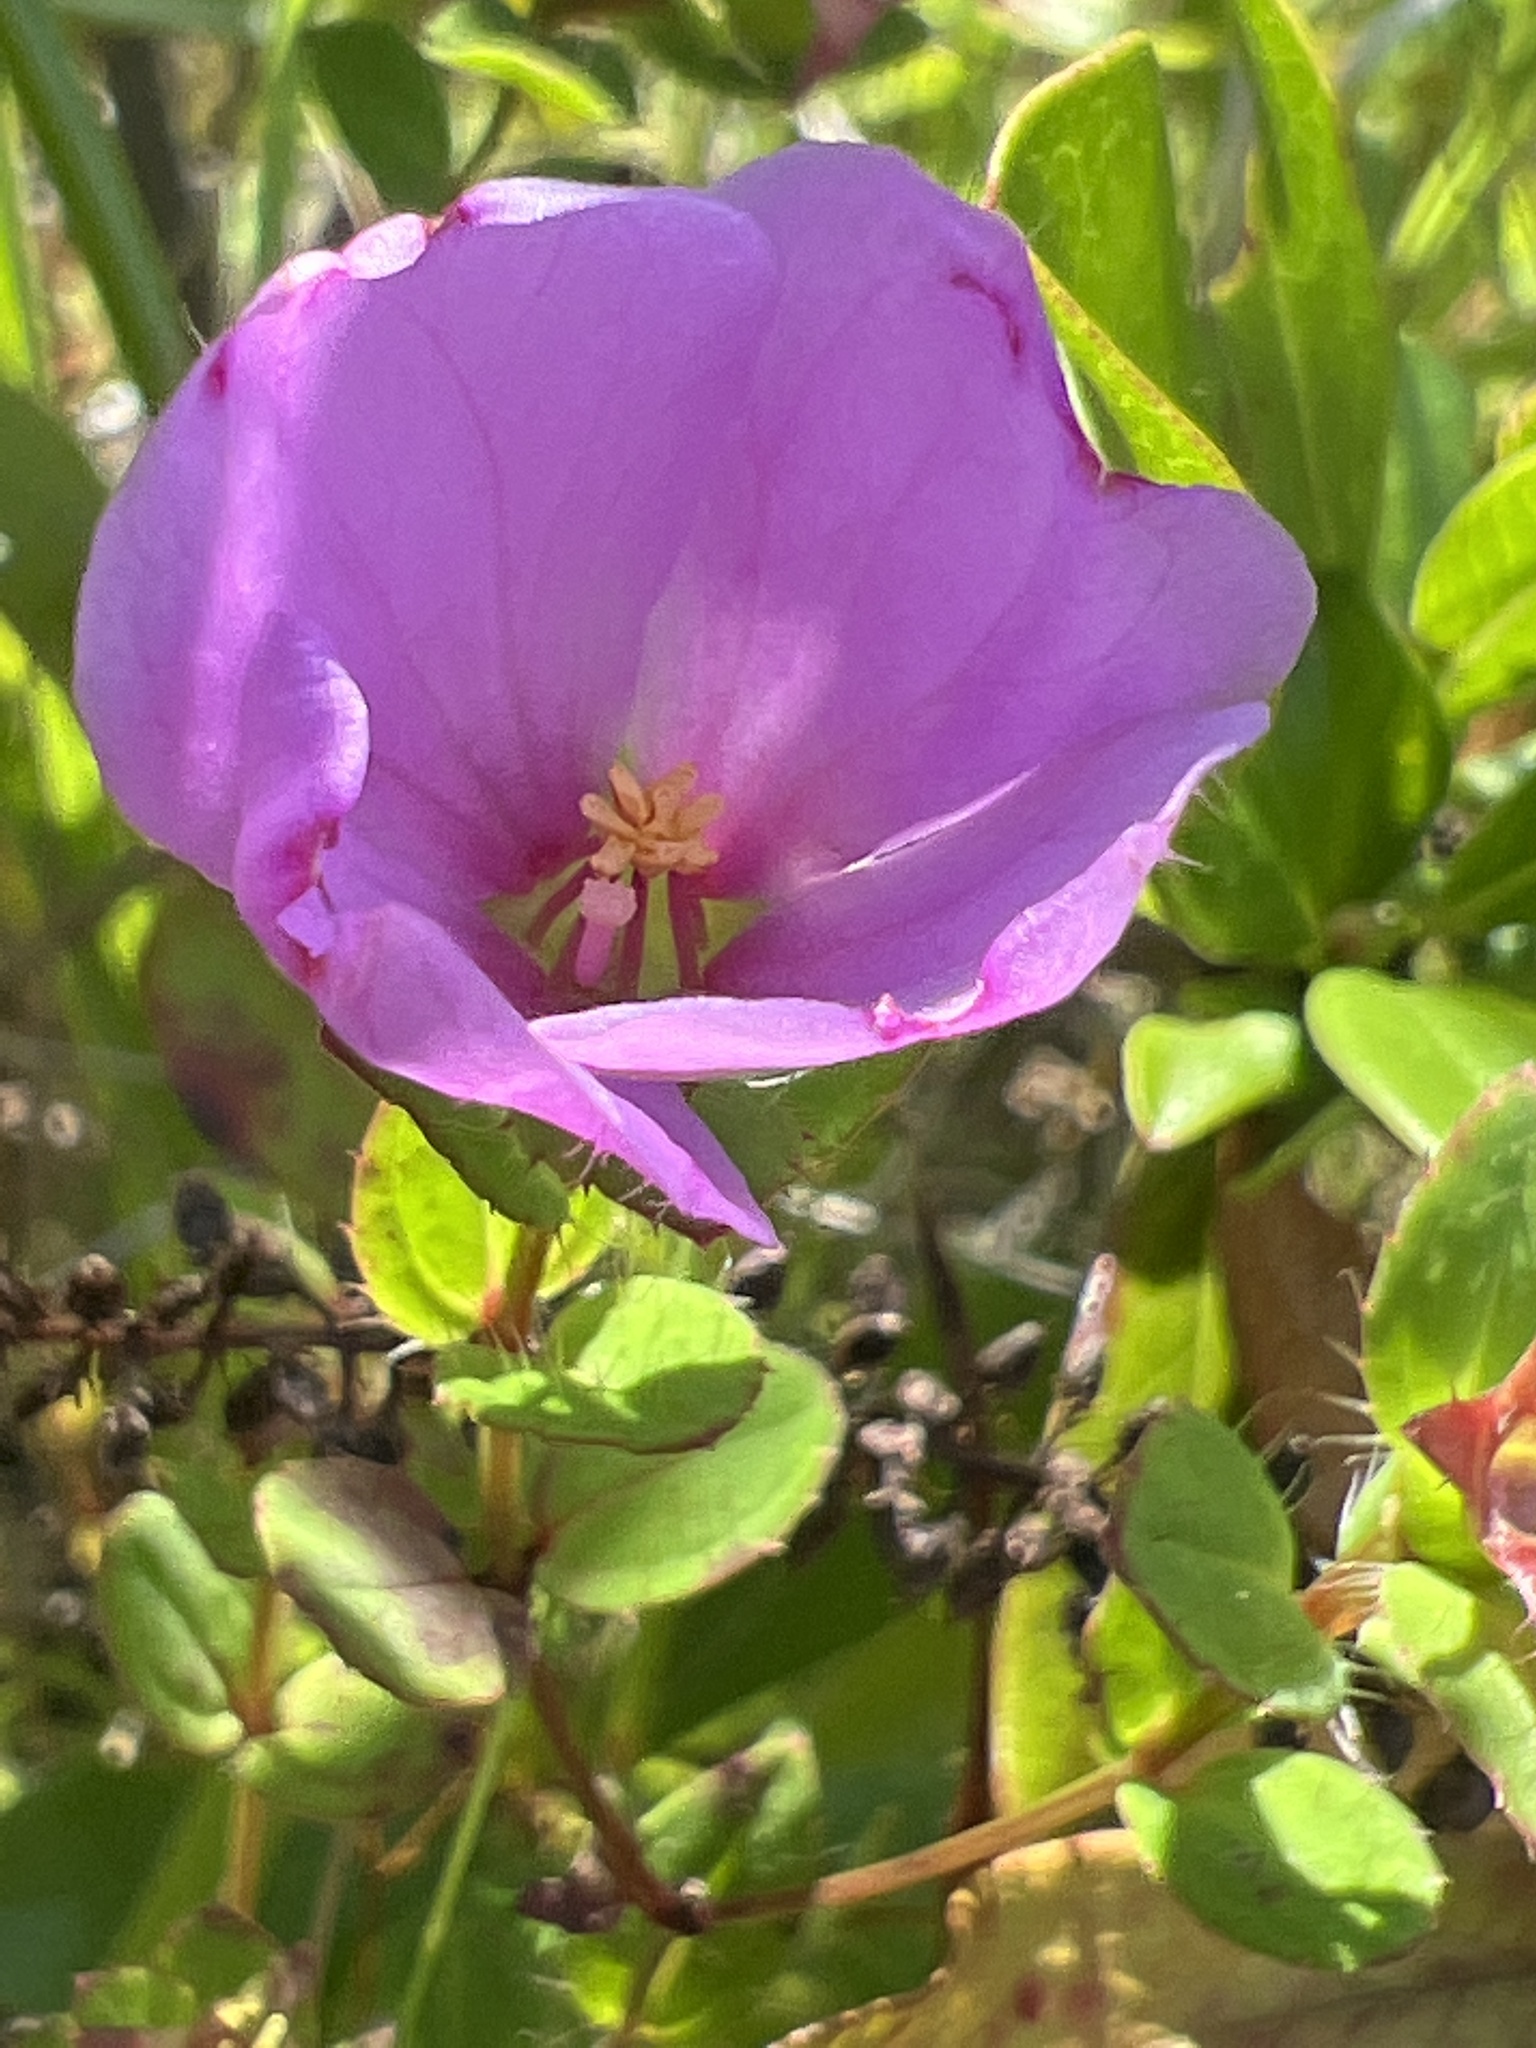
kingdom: Plantae
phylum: Tracheophyta
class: Magnoliopsida
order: Myrtales
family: Melastomataceae
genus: Rhexia
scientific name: Rhexia petiolata
